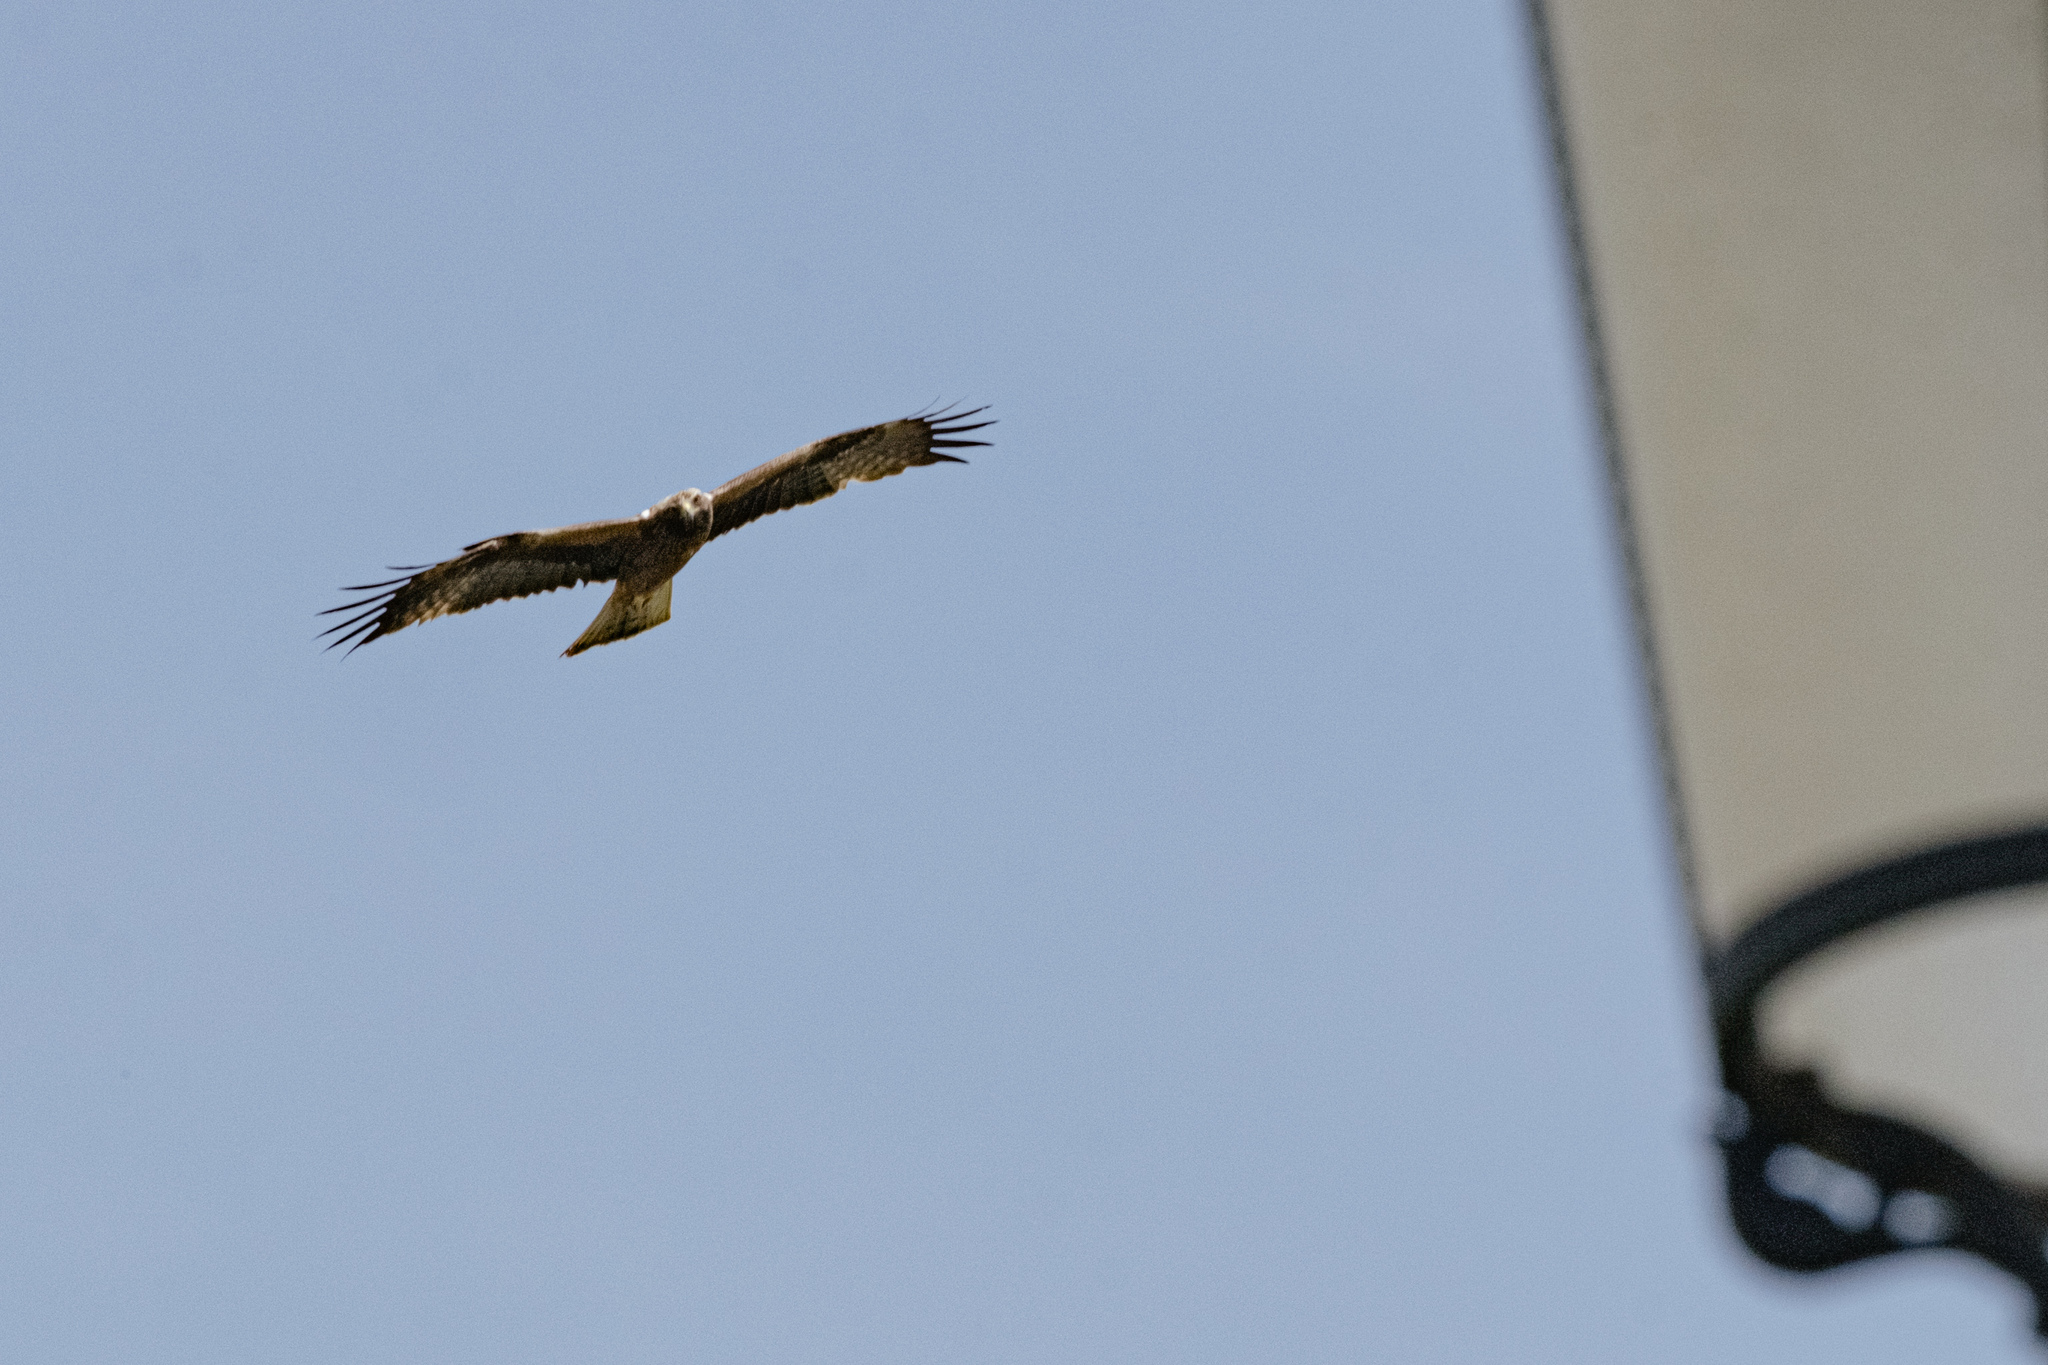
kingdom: Animalia
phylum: Chordata
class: Aves
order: Accipitriformes
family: Accipitridae
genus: Hieraaetus
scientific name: Hieraaetus pennatus
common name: Booted eagle
